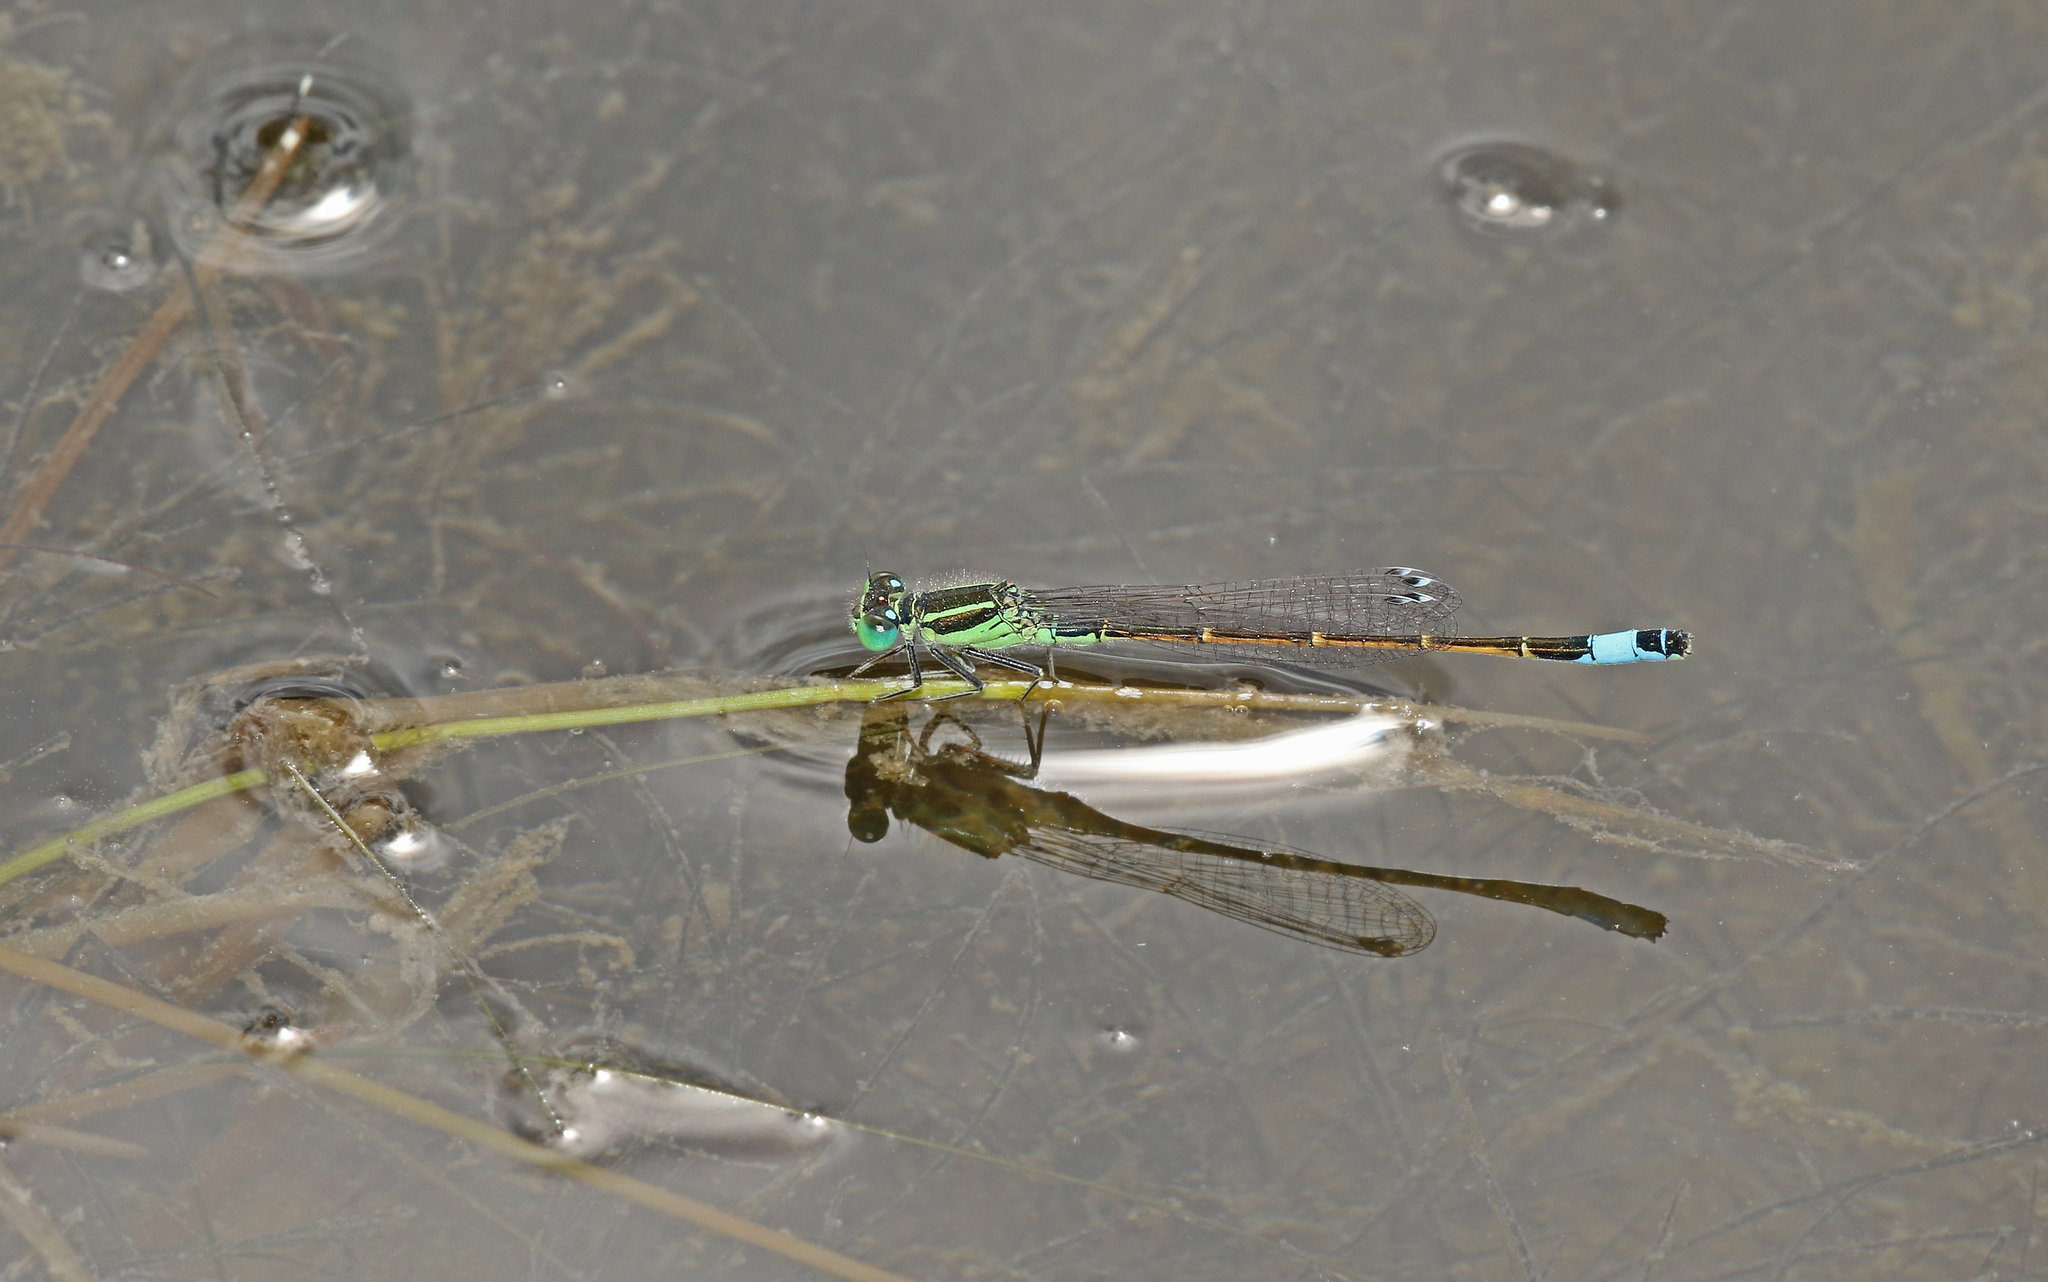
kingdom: Animalia
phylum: Arthropoda
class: Insecta
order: Odonata
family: Coenagrionidae
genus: Ischnura
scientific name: Ischnura saharensis
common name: Sahara bluetail
